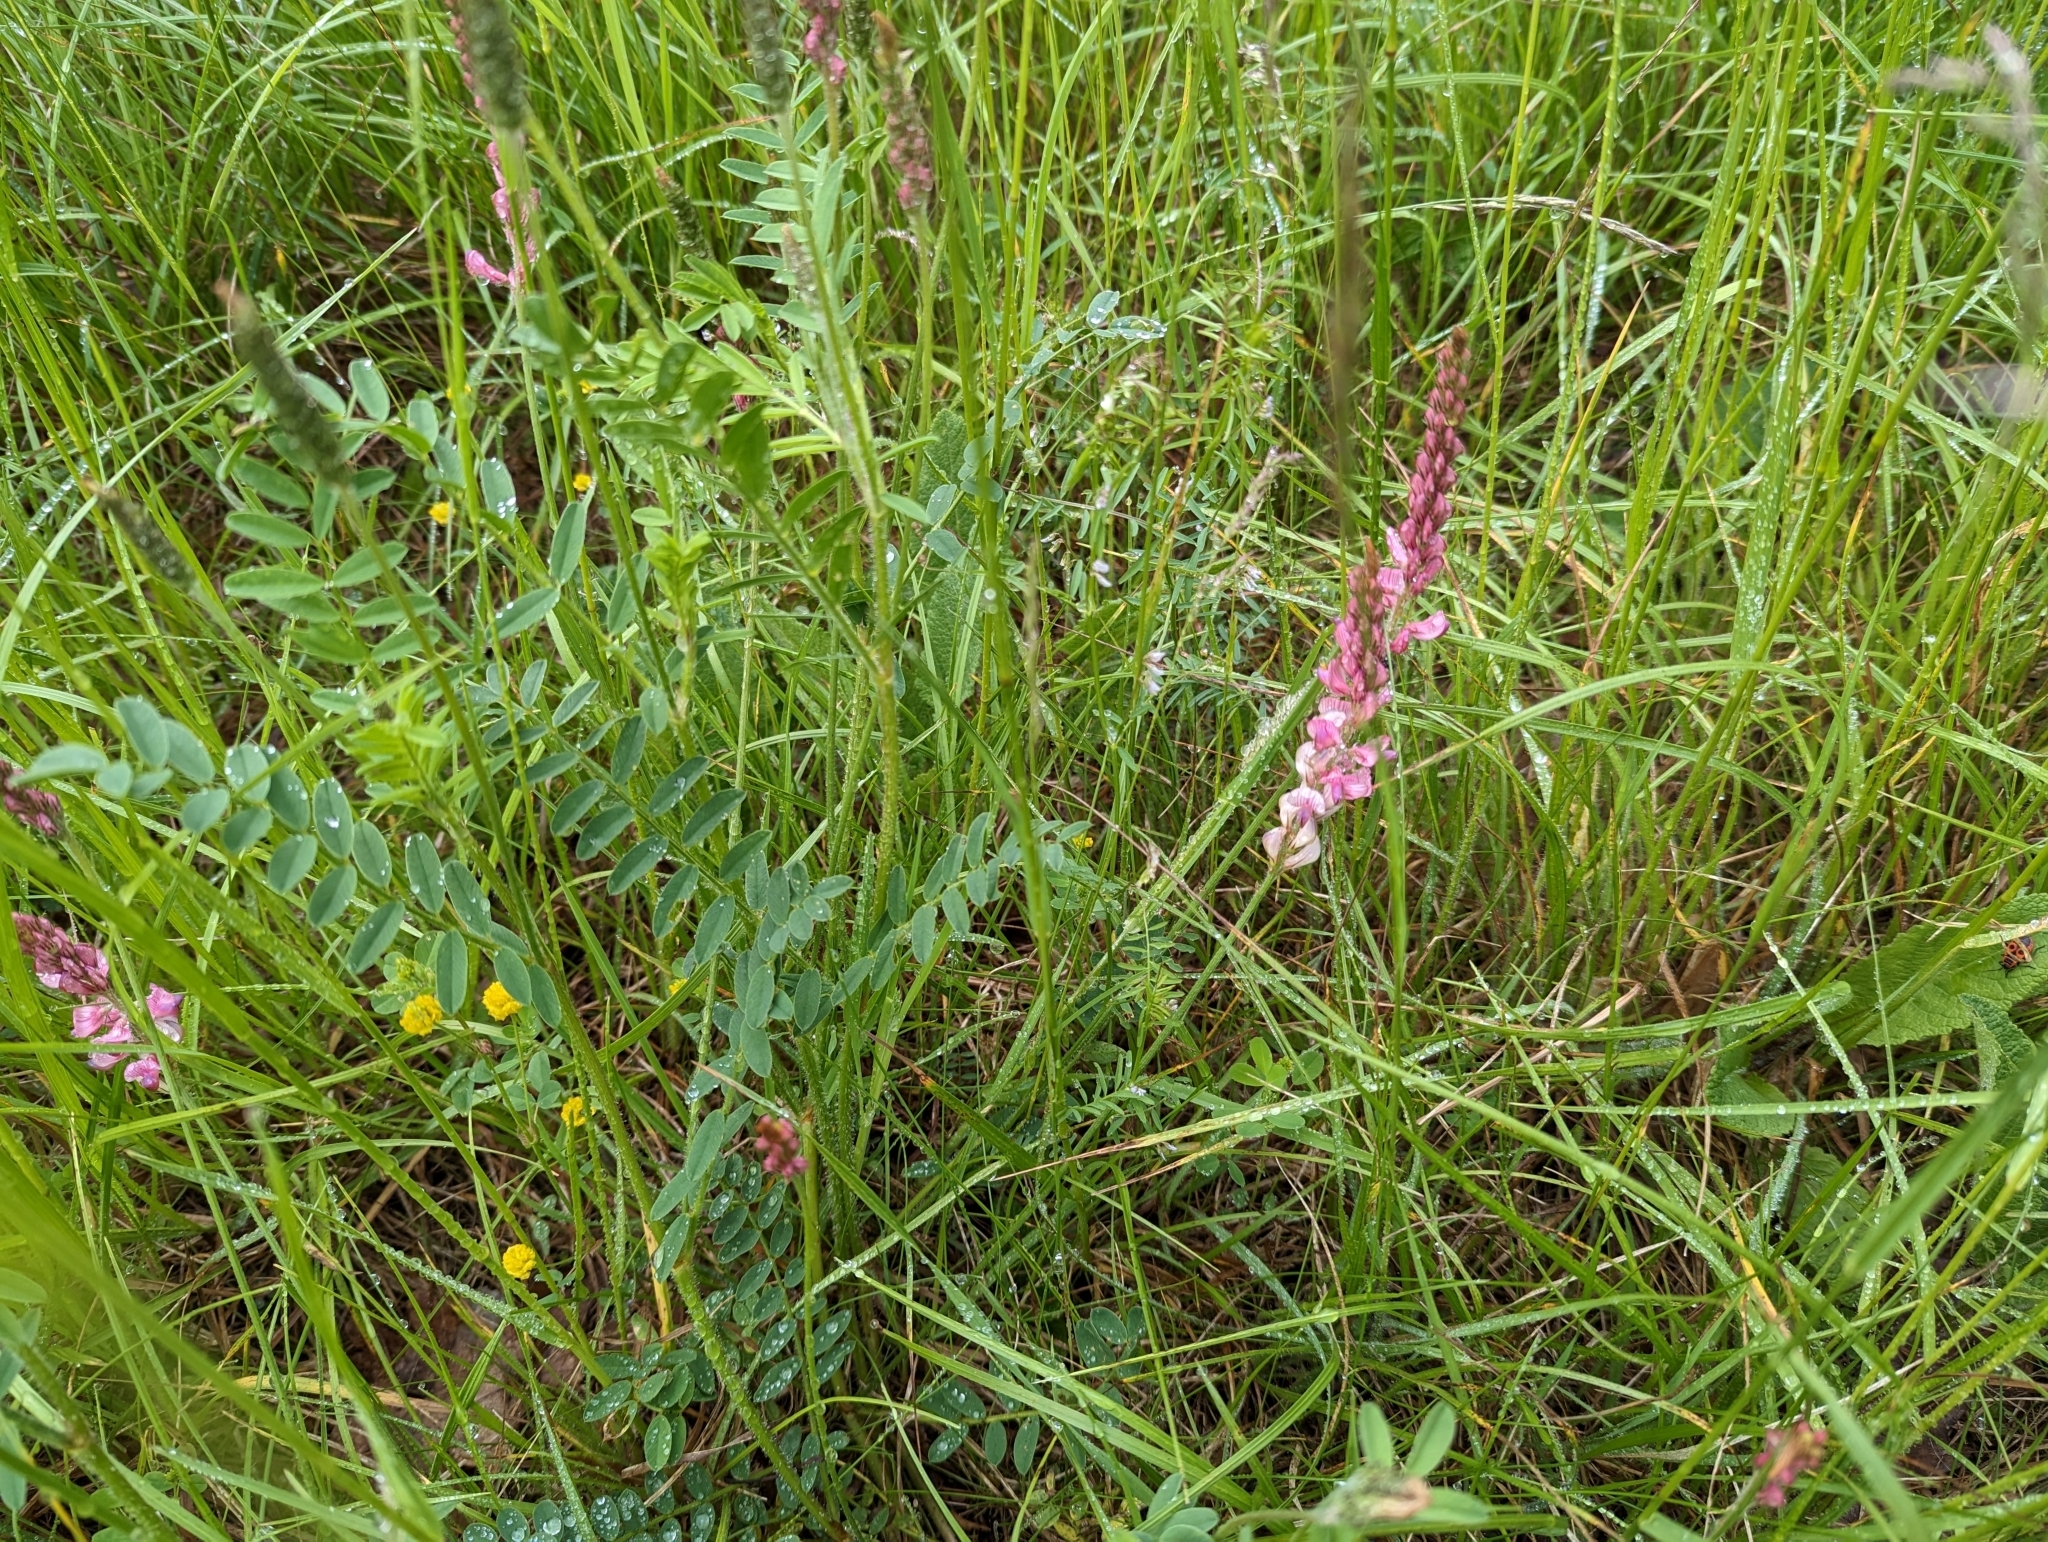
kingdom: Plantae
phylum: Tracheophyta
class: Magnoliopsida
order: Fabales
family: Fabaceae
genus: Onobrychis
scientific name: Onobrychis viciifolia
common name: Sainfoin
